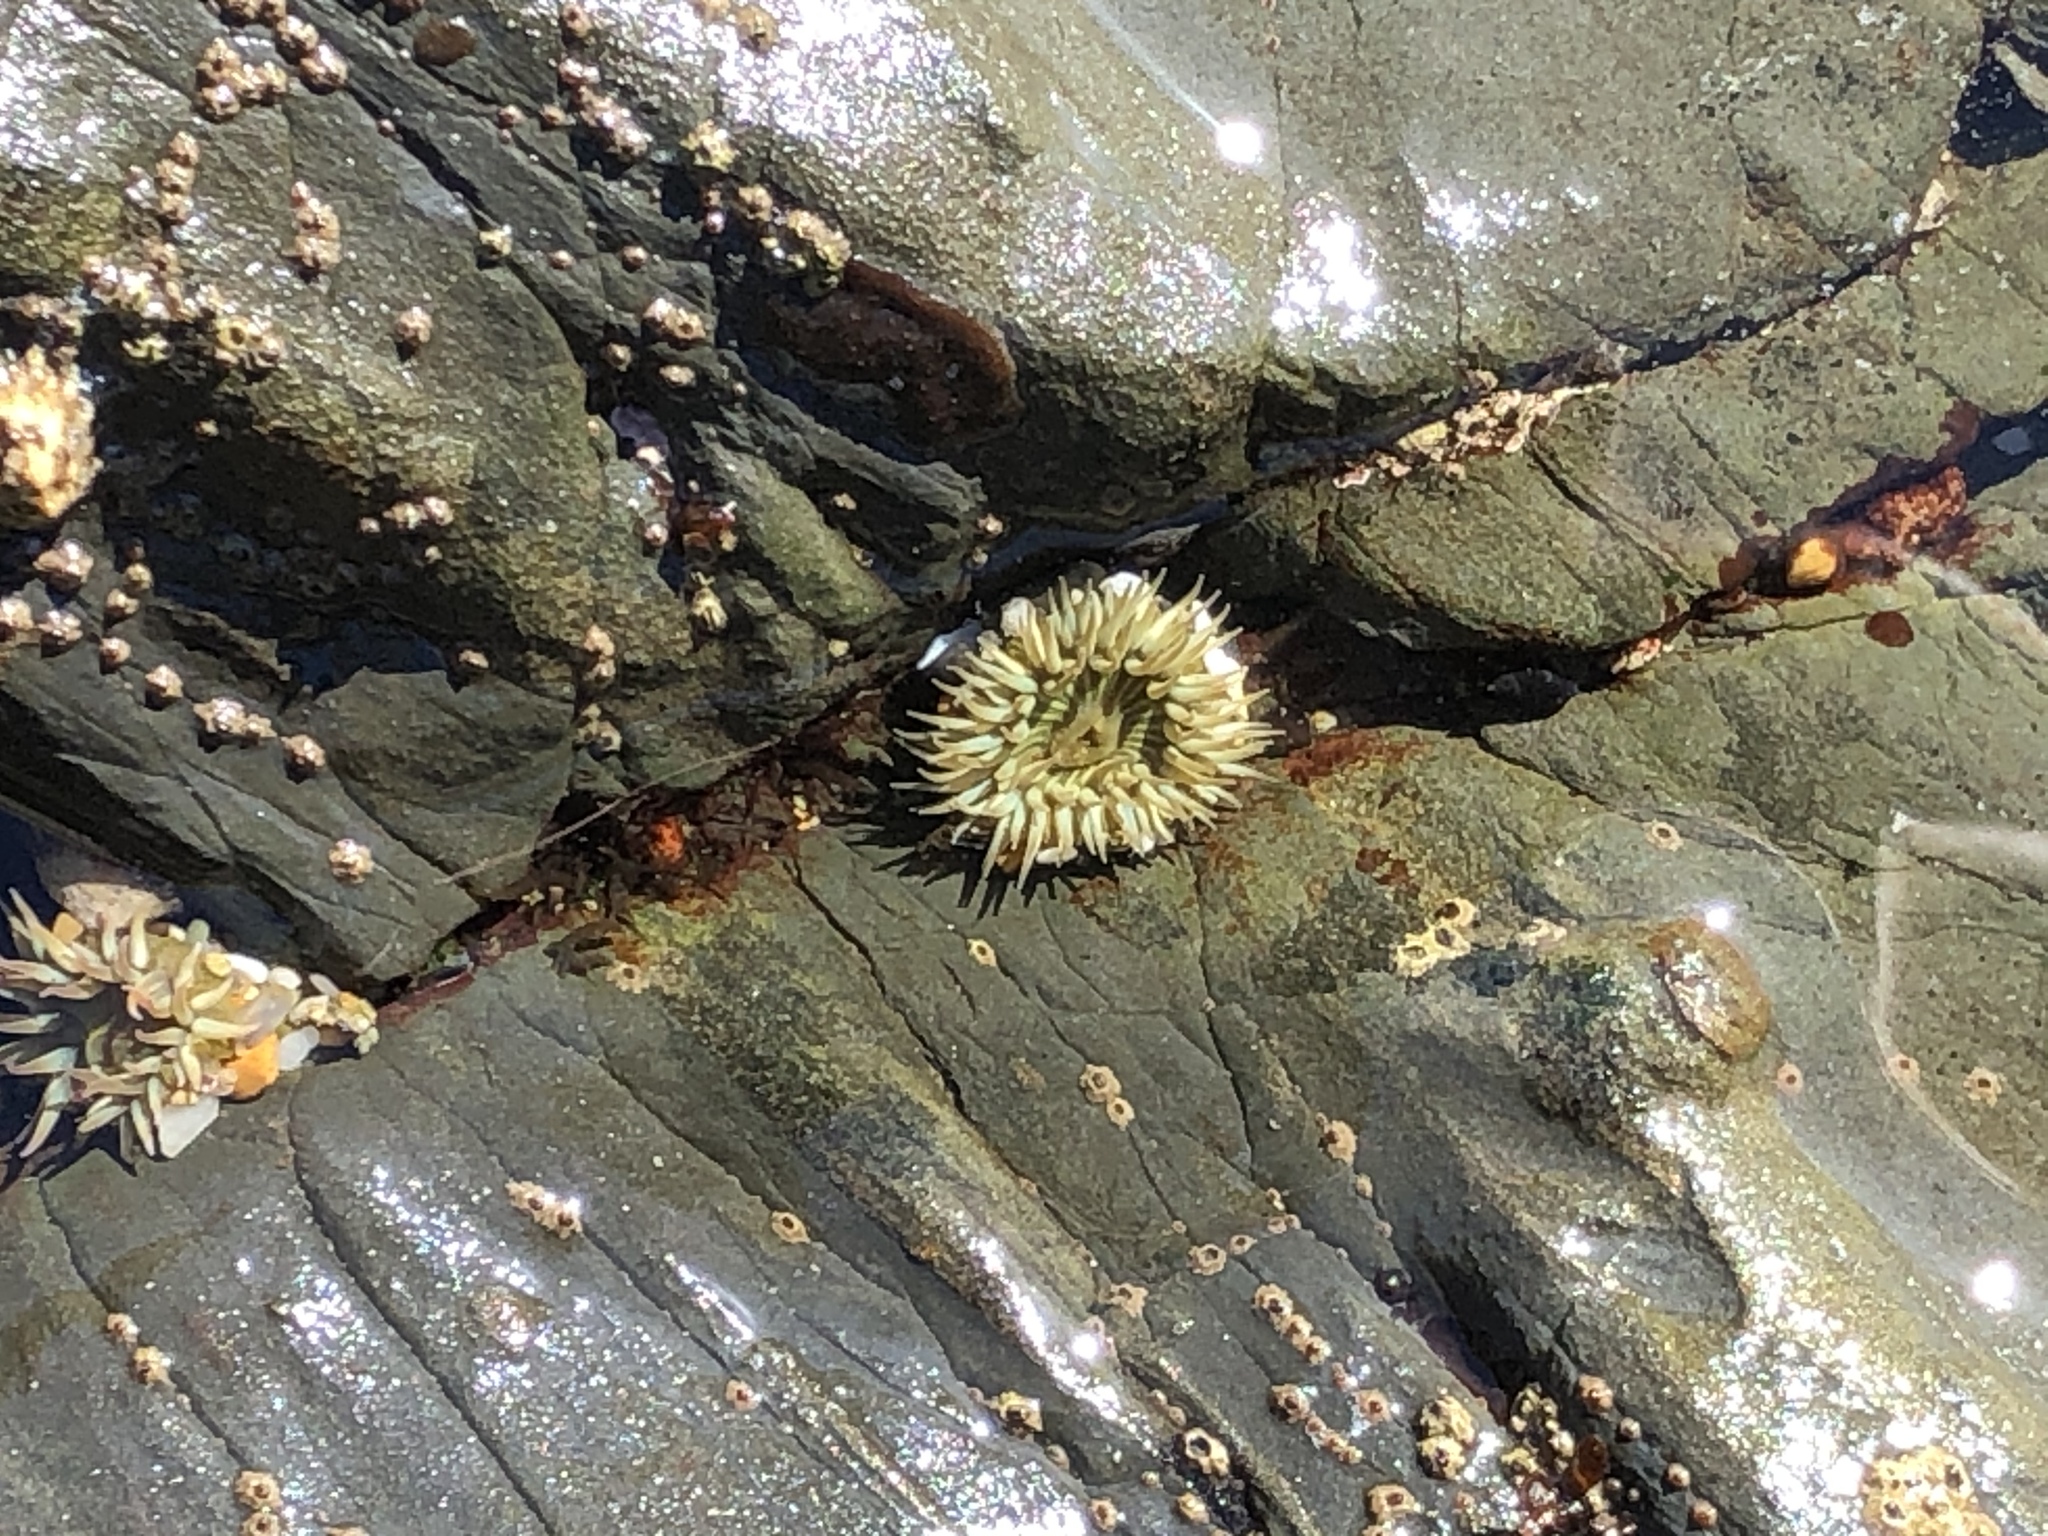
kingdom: Animalia
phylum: Cnidaria
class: Anthozoa
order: Actiniaria
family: Actiniidae
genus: Anthopleura
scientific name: Anthopleura sola
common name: Sun anemone
